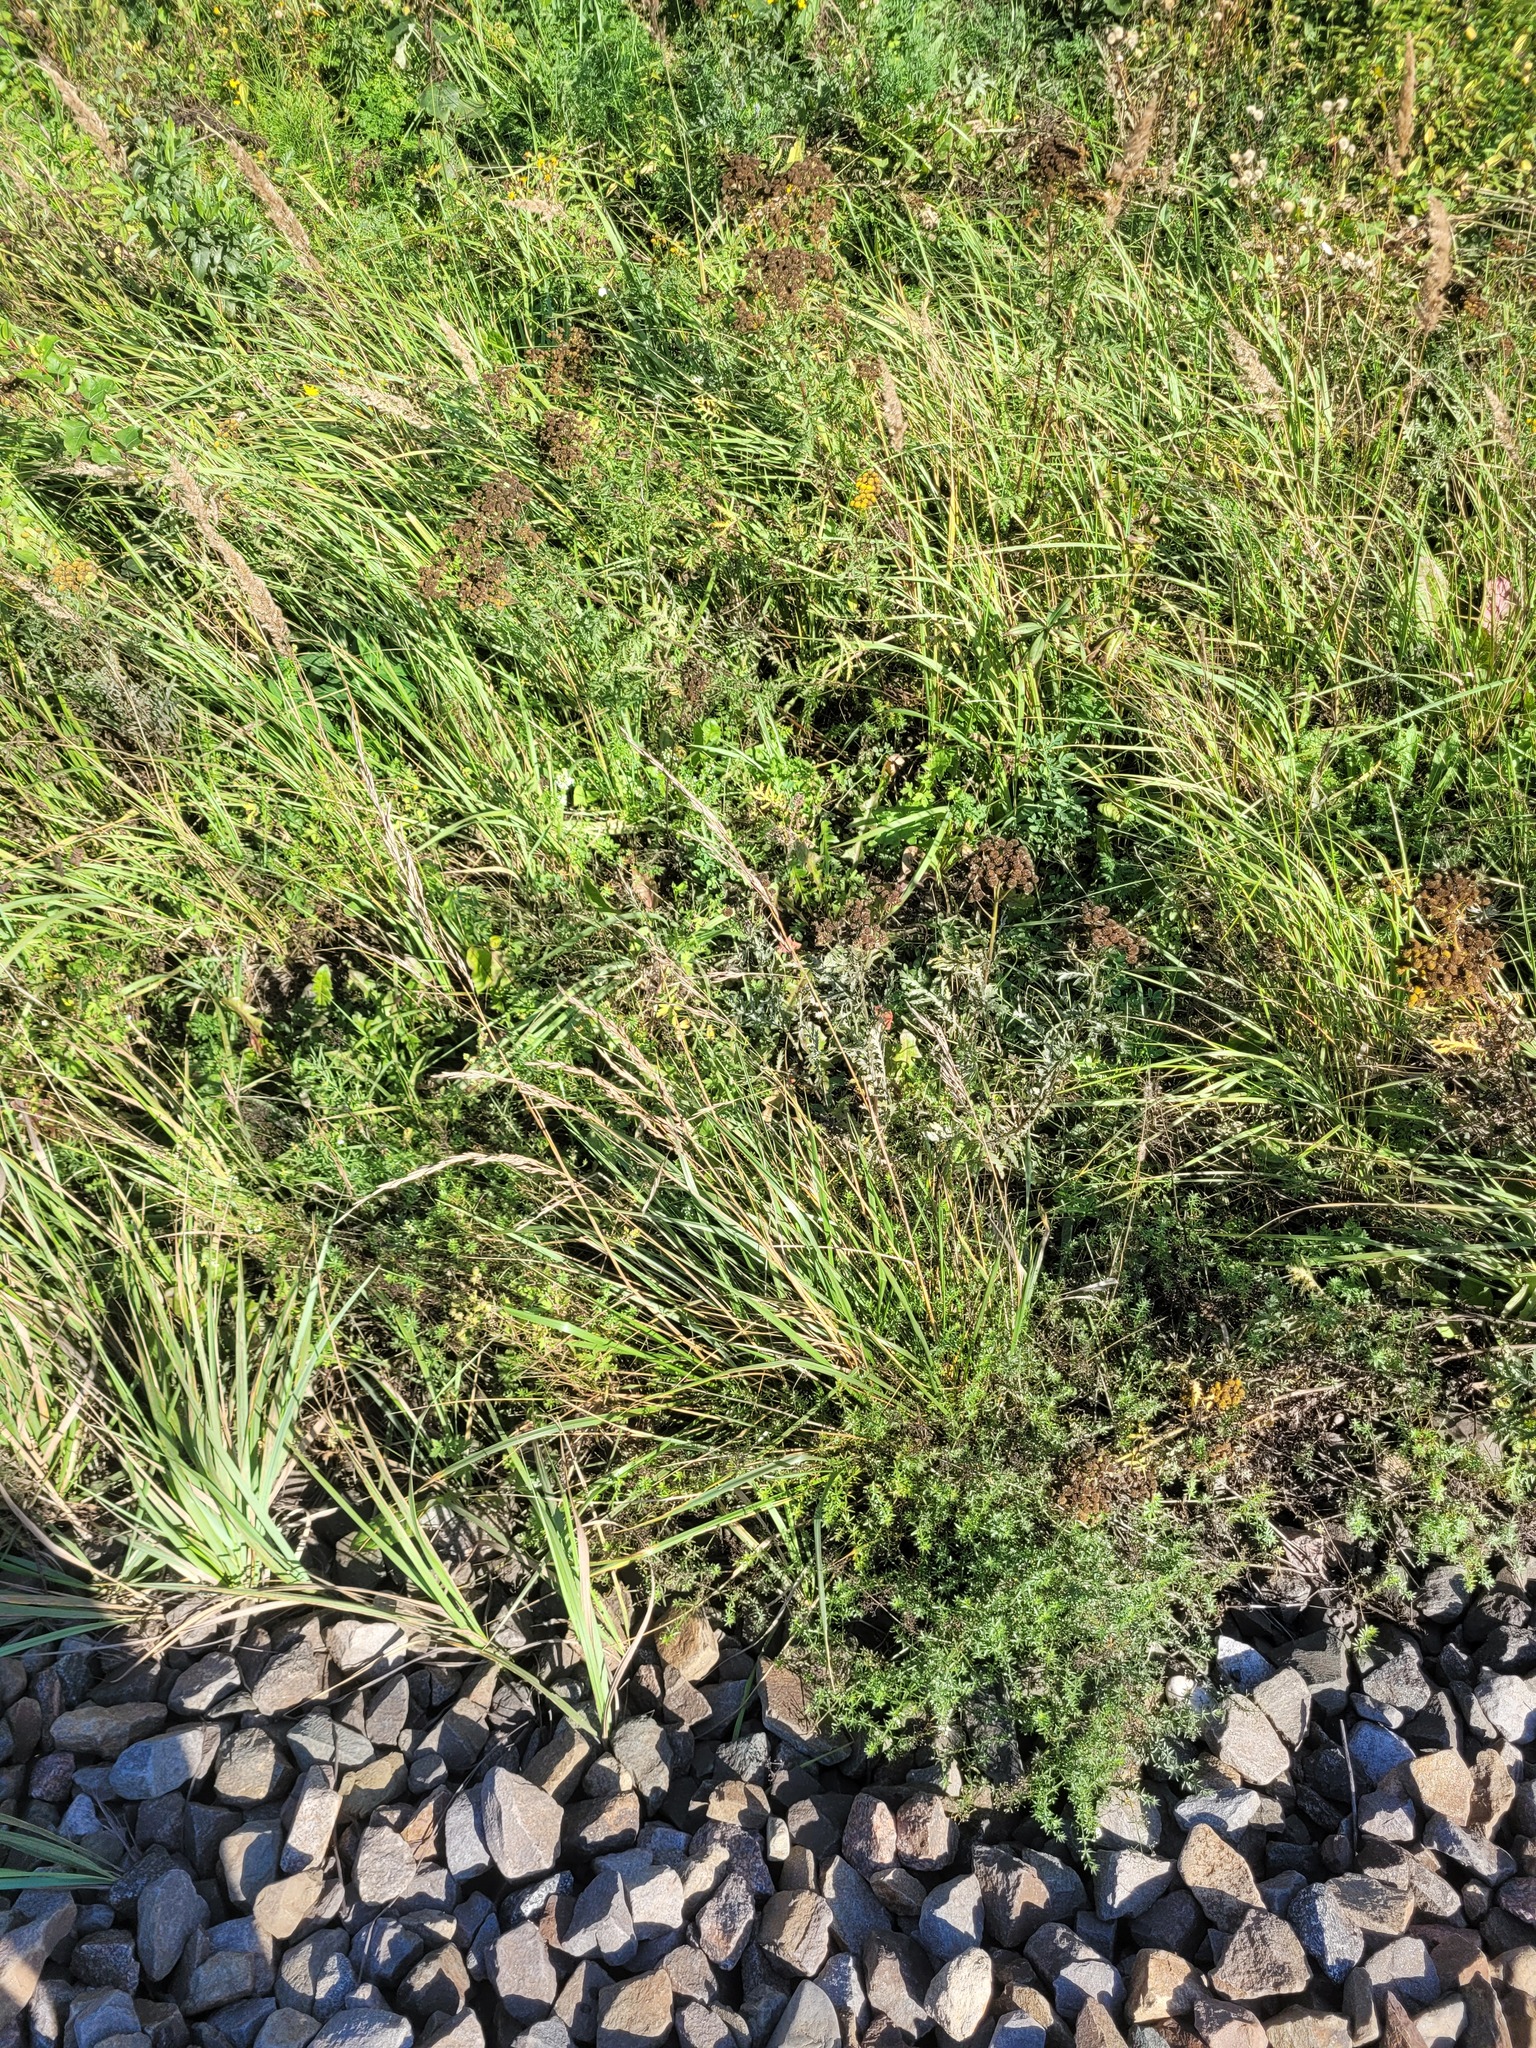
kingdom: Plantae
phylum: Tracheophyta
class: Liliopsida
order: Poales
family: Poaceae
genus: Lolium
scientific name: Lolium arundinaceum
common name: Reed fescue
